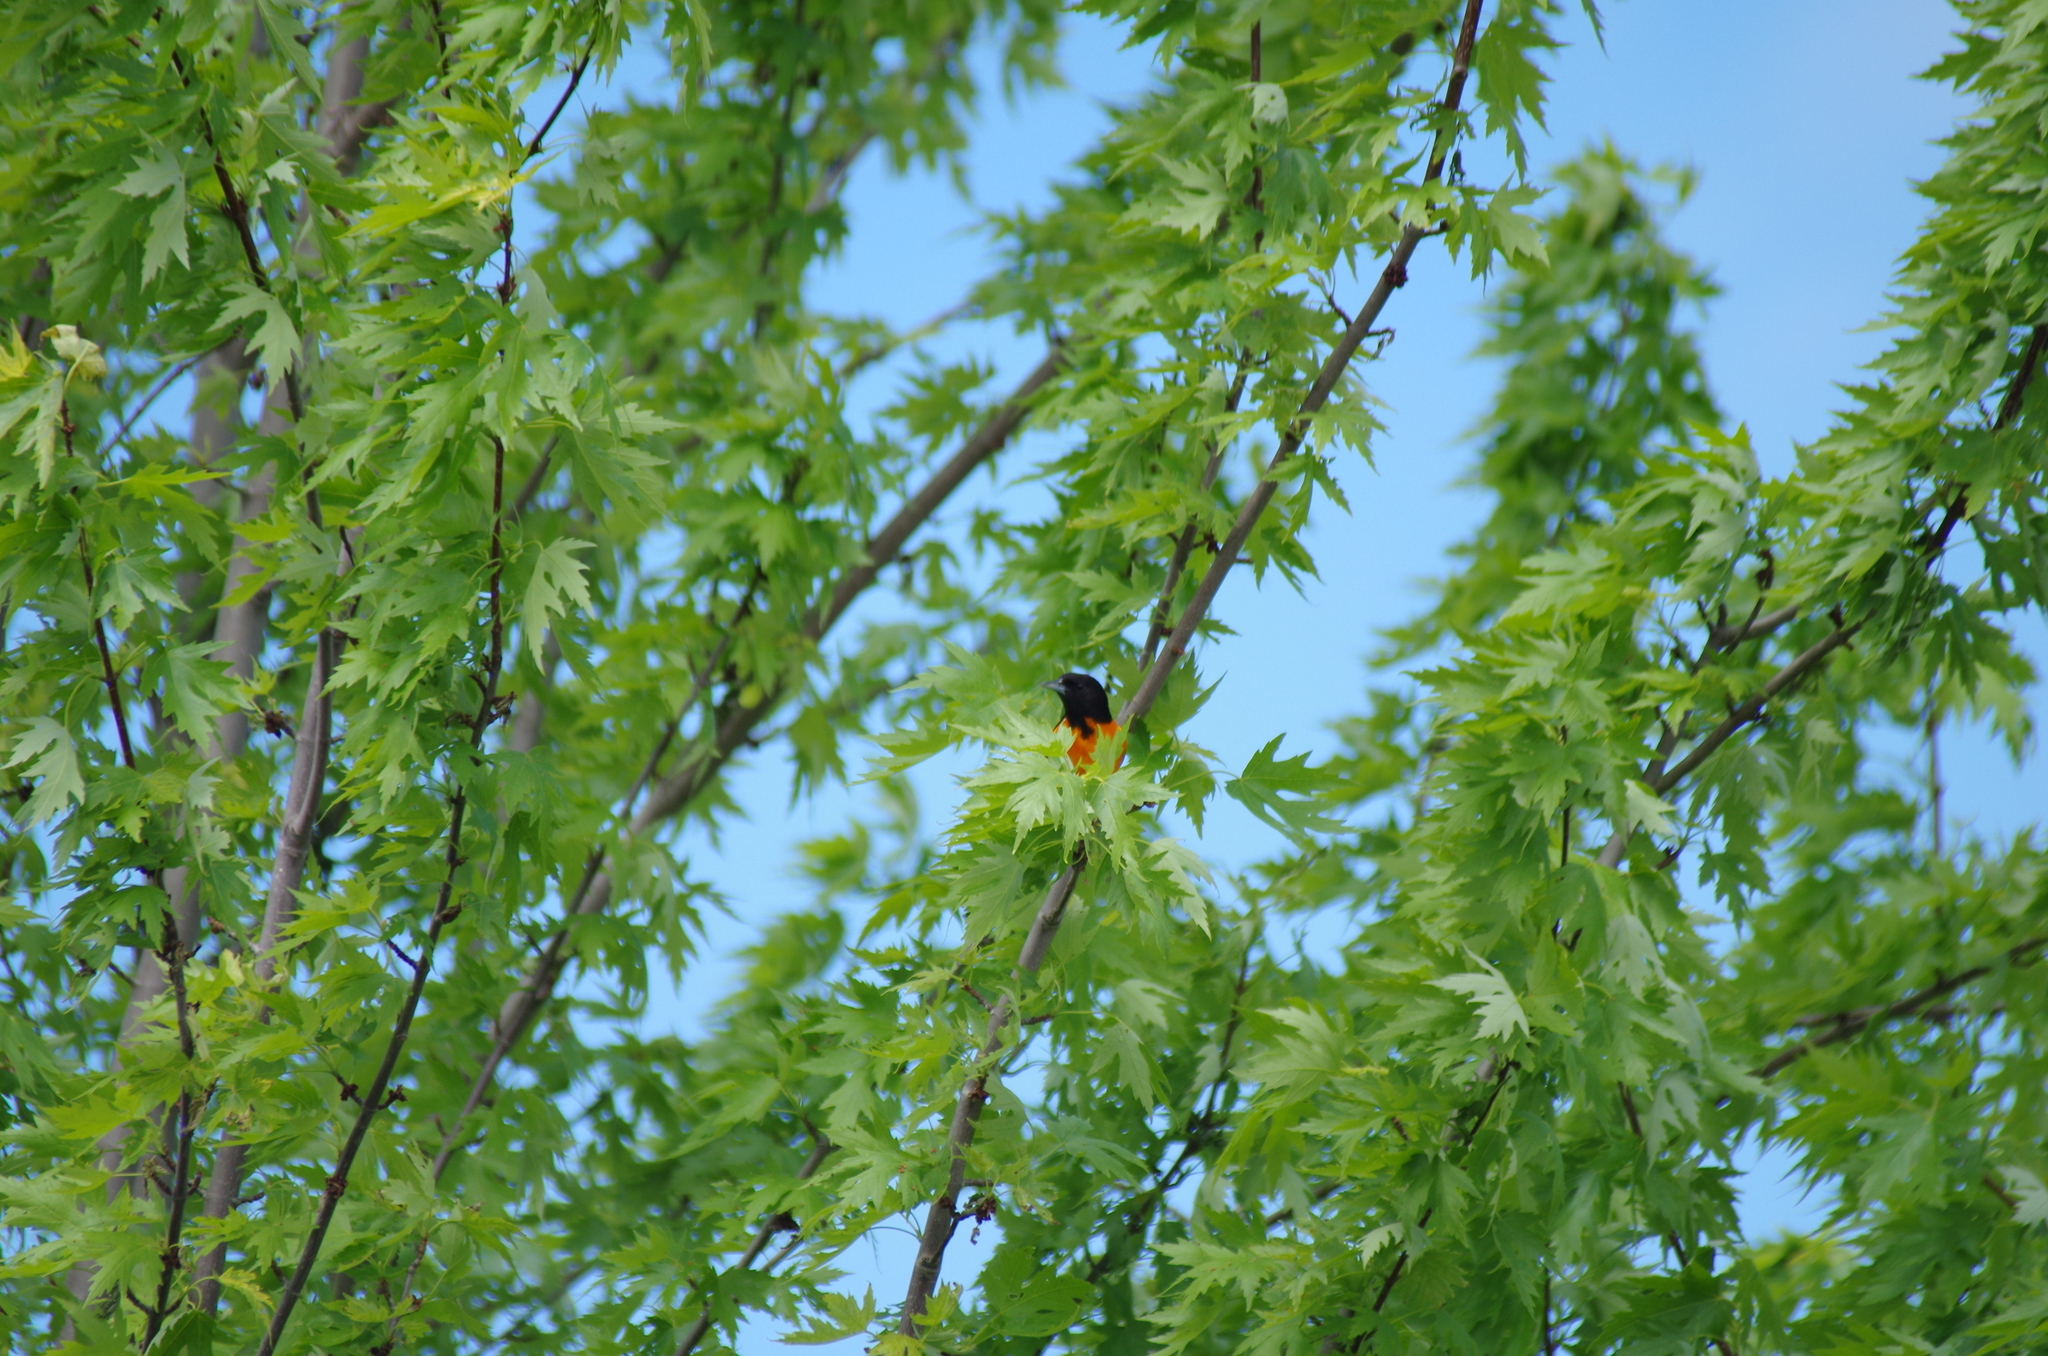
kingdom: Animalia
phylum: Chordata
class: Aves
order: Passeriformes
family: Icteridae
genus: Icterus
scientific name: Icterus galbula
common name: Baltimore oriole
